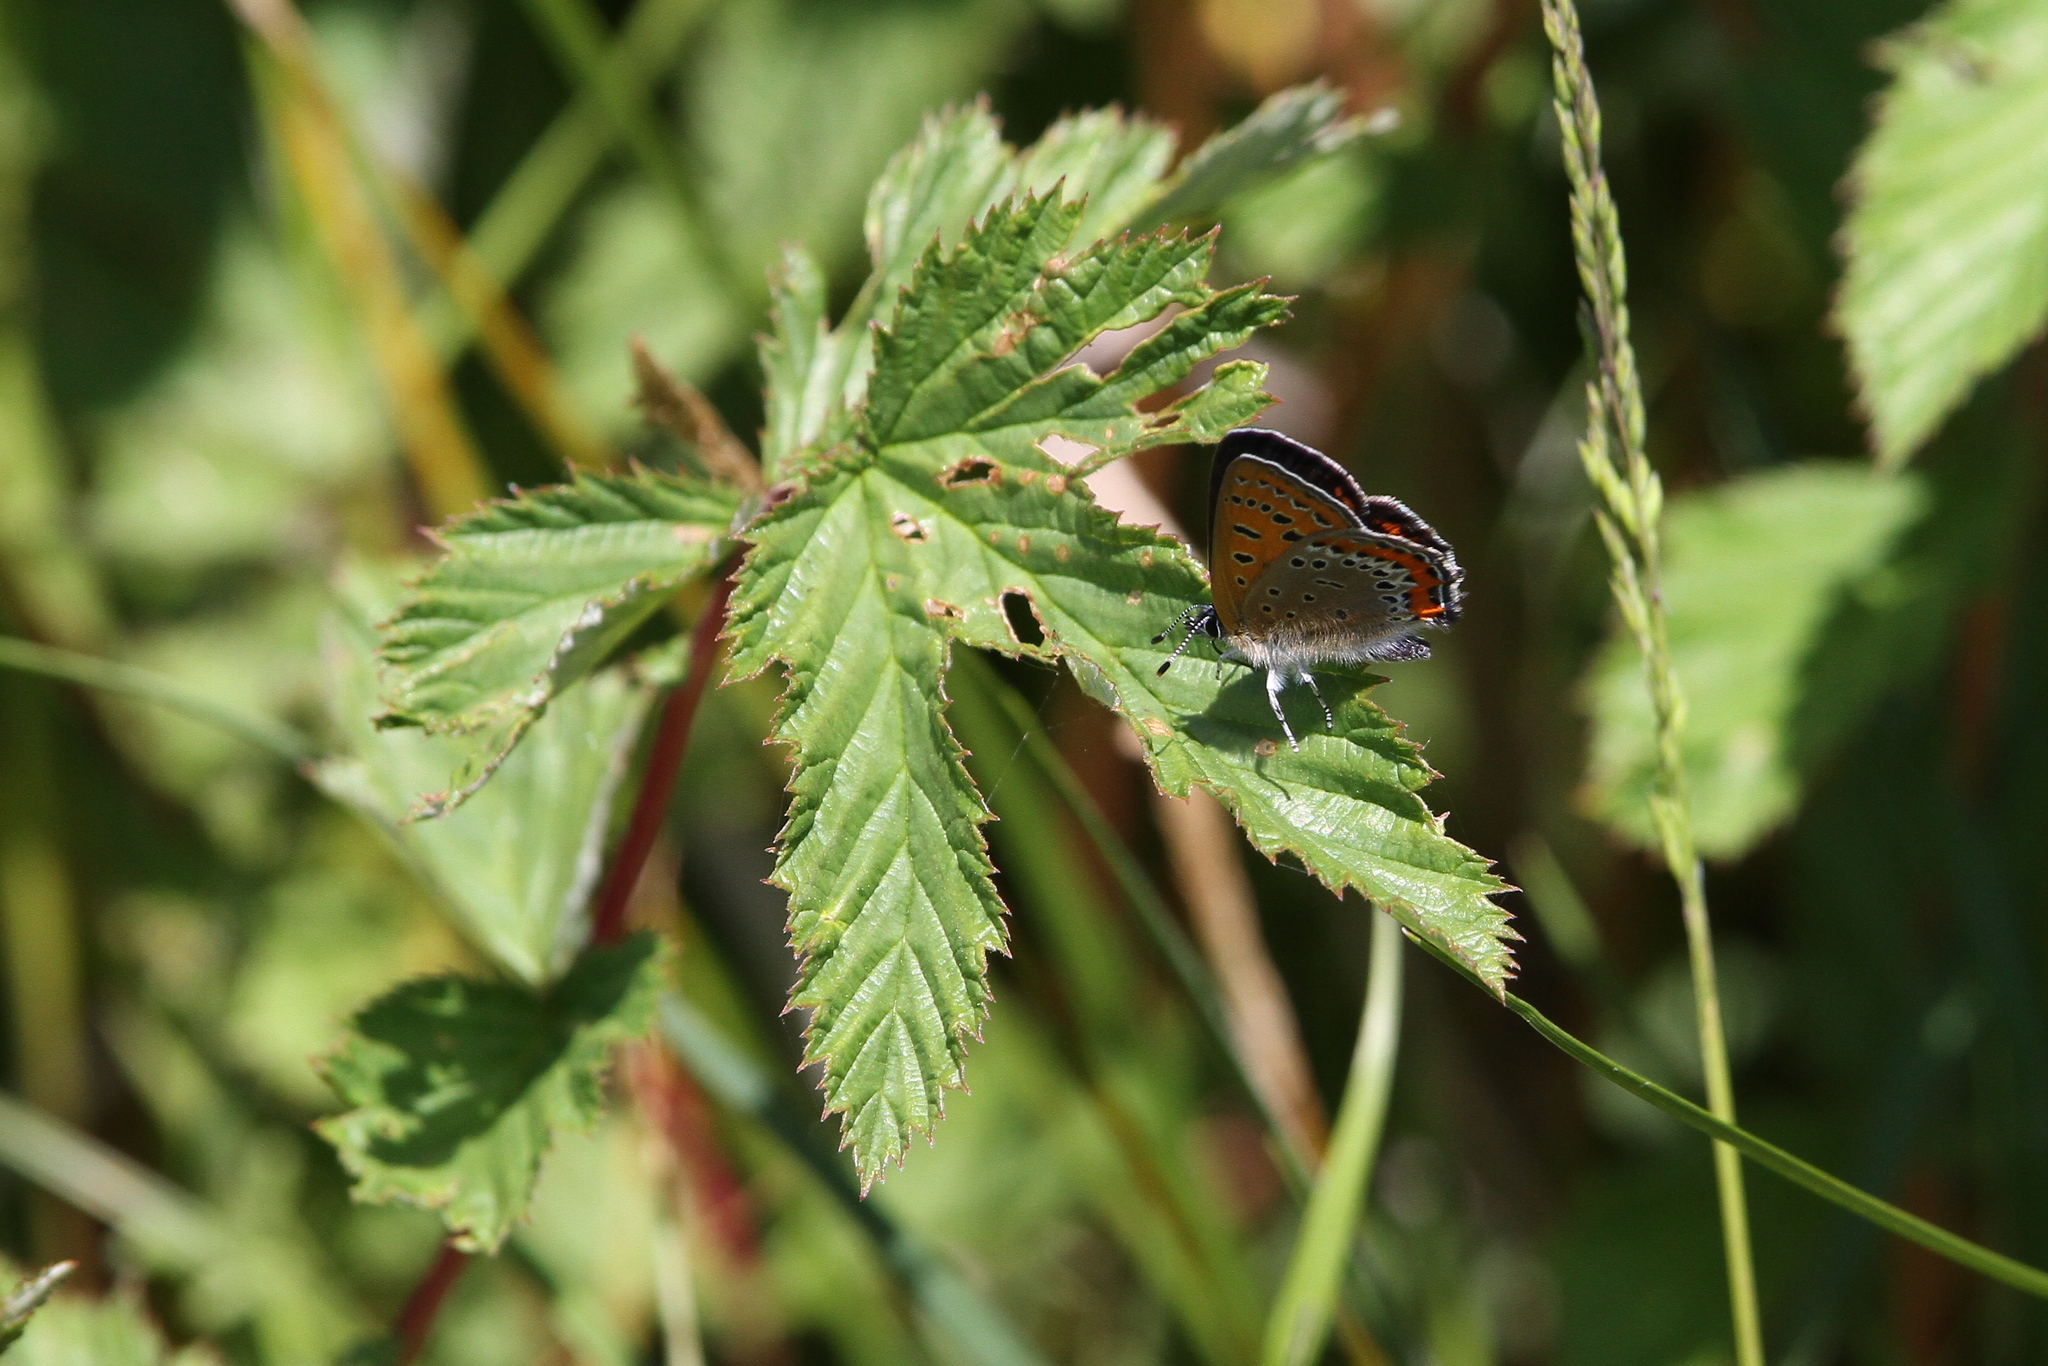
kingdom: Animalia
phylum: Arthropoda
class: Insecta
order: Lepidoptera
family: Lycaenidae
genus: Helleia
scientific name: Helleia helle
